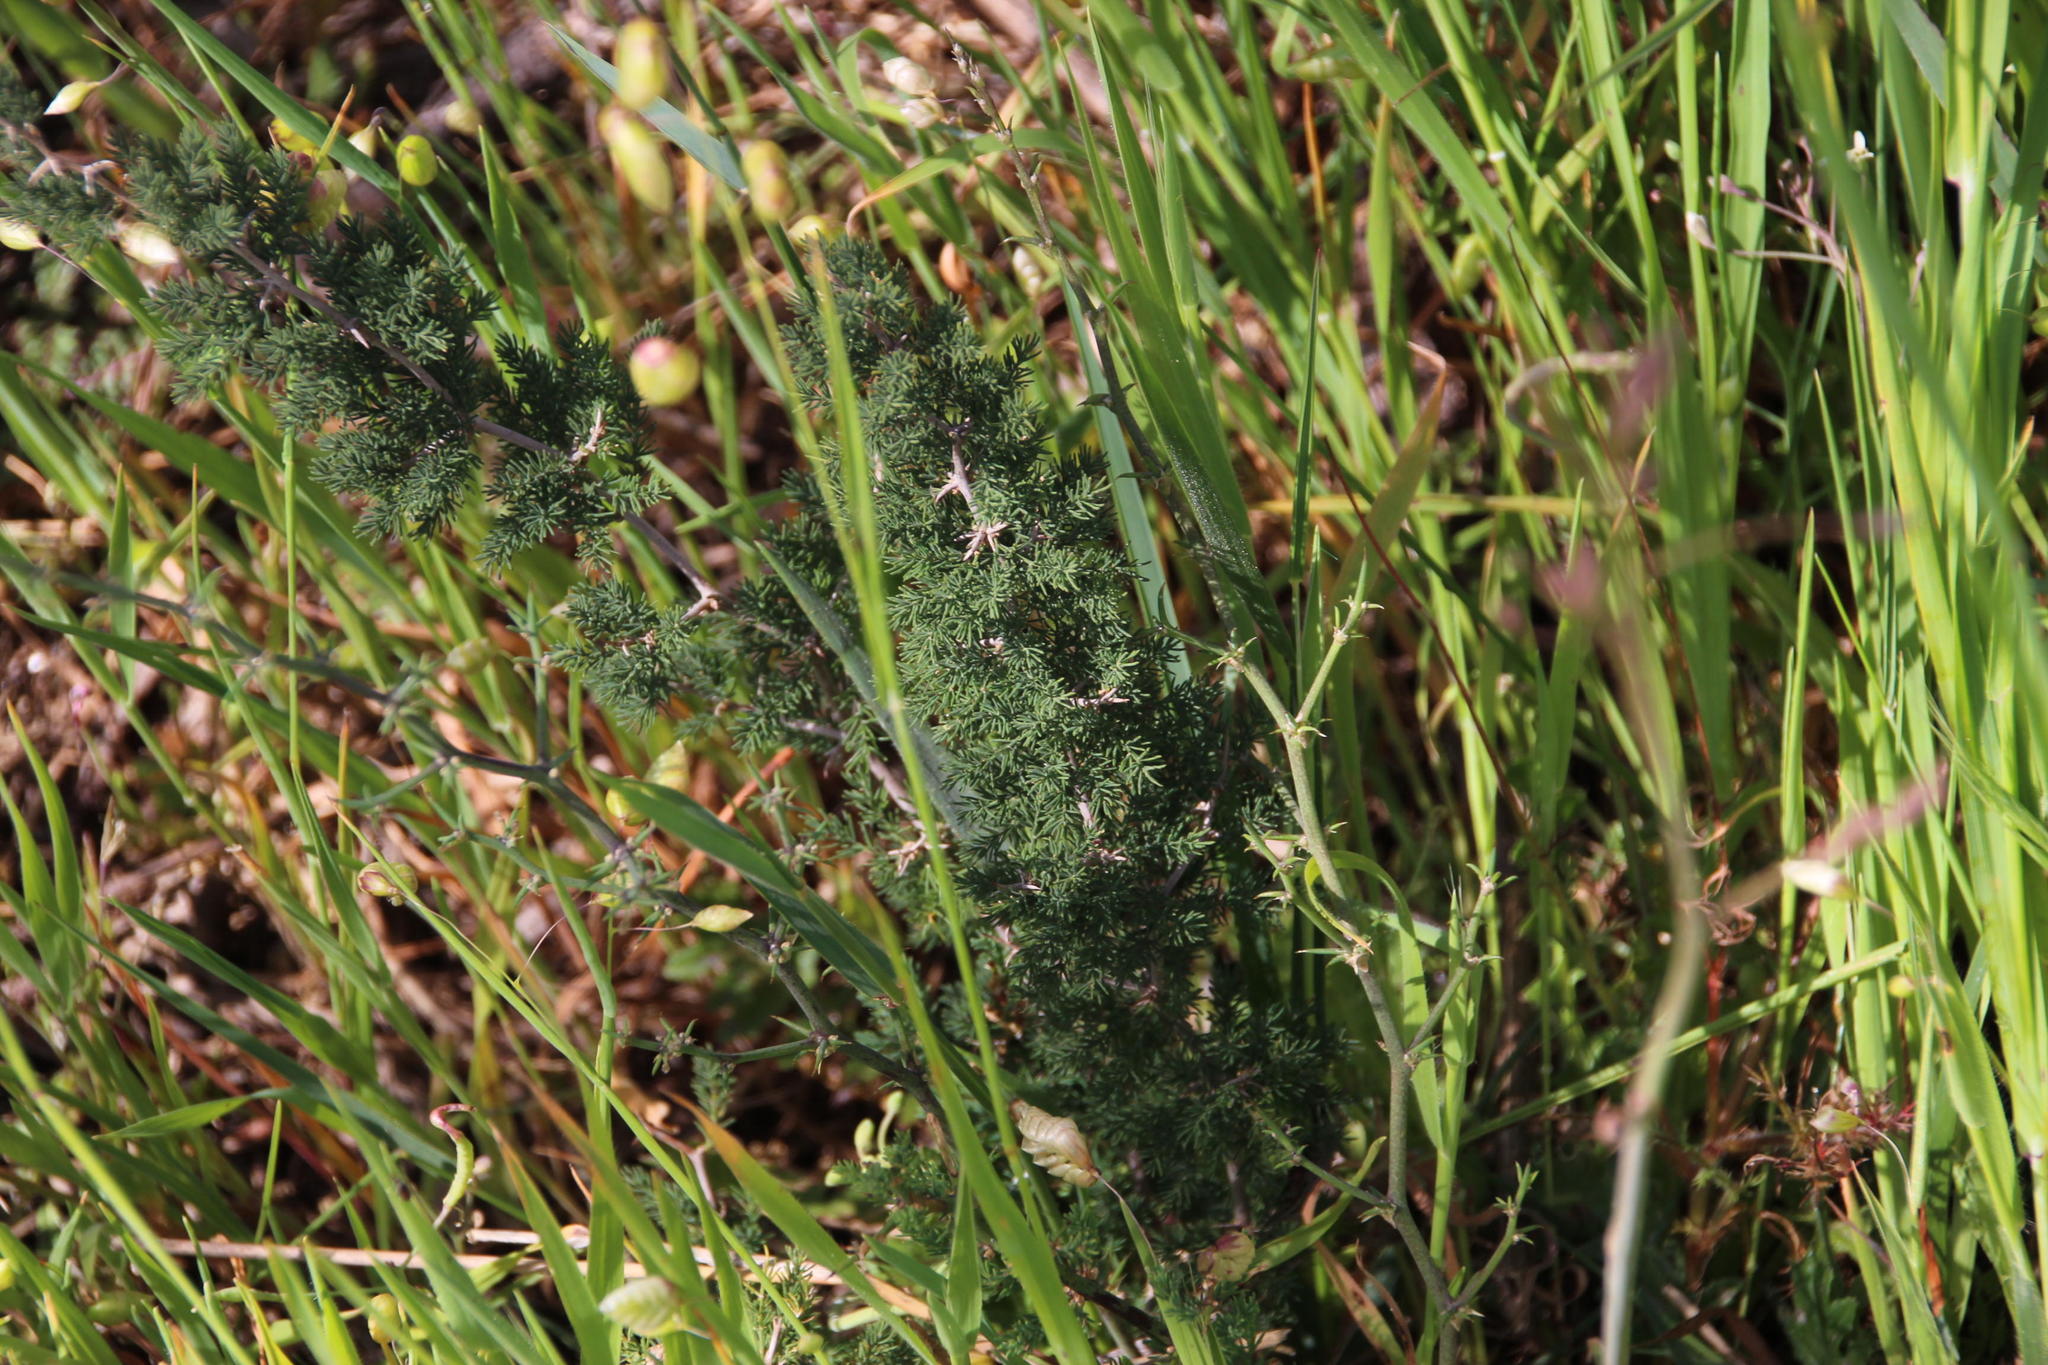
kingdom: Plantae
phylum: Tracheophyta
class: Liliopsida
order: Asparagales
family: Asparagaceae
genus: Asparagus
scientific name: Asparagus capensis
